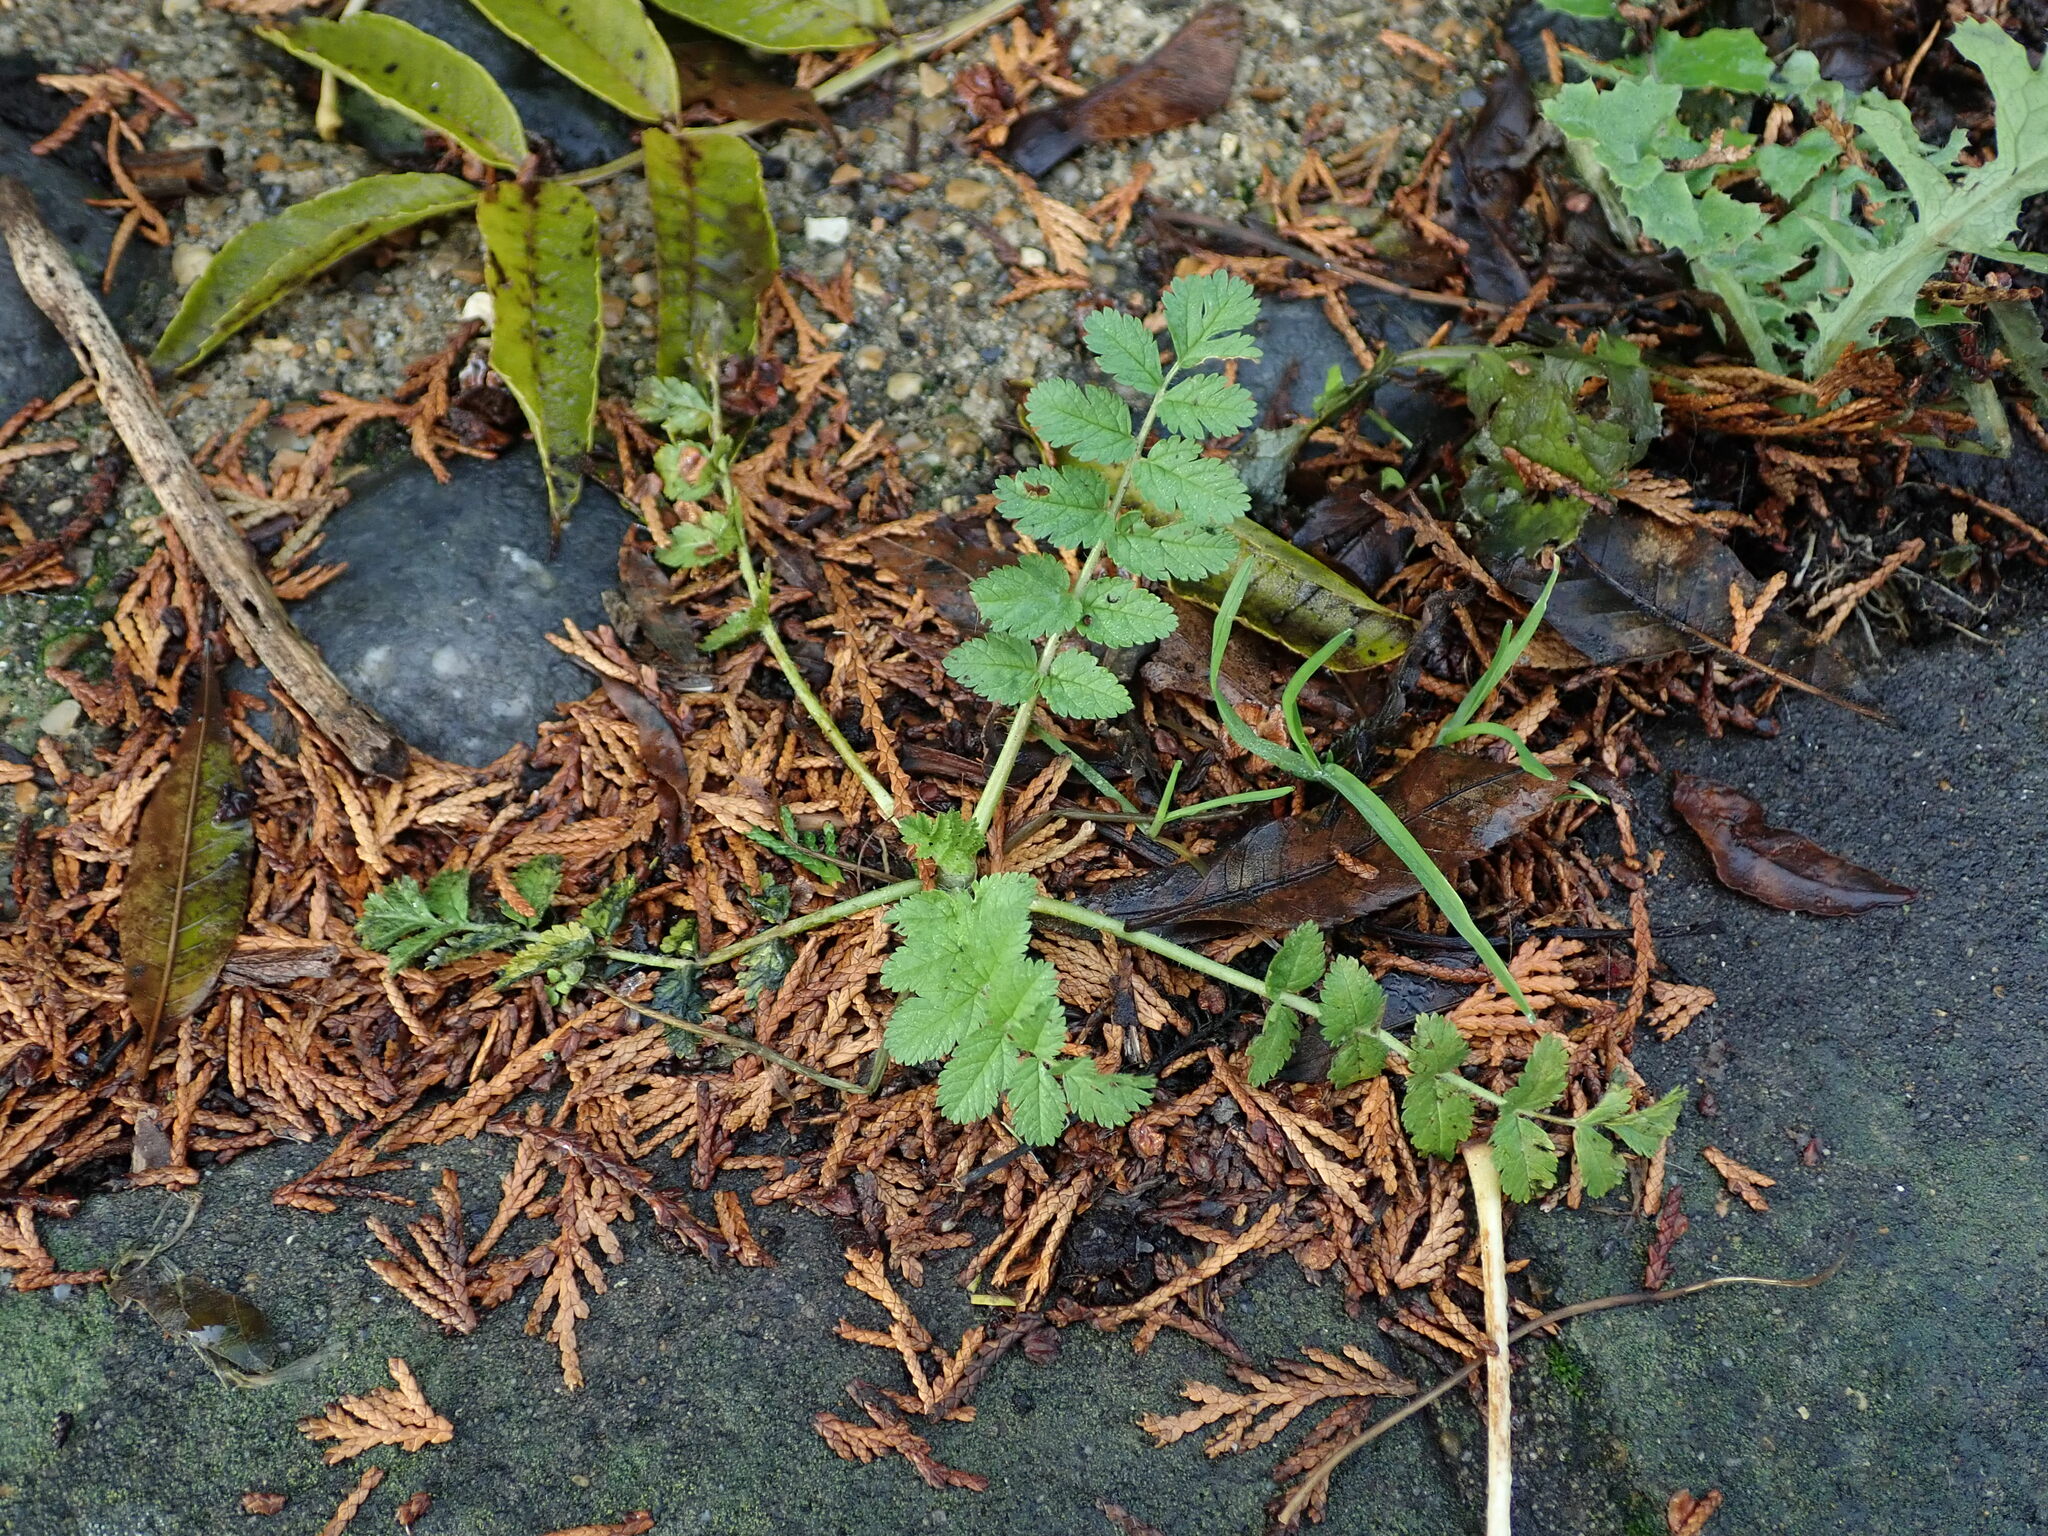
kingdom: Plantae
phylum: Tracheophyta
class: Magnoliopsida
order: Geraniales
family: Geraniaceae
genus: Erodium
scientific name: Erodium moschatum
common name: Musk stork's-bill
